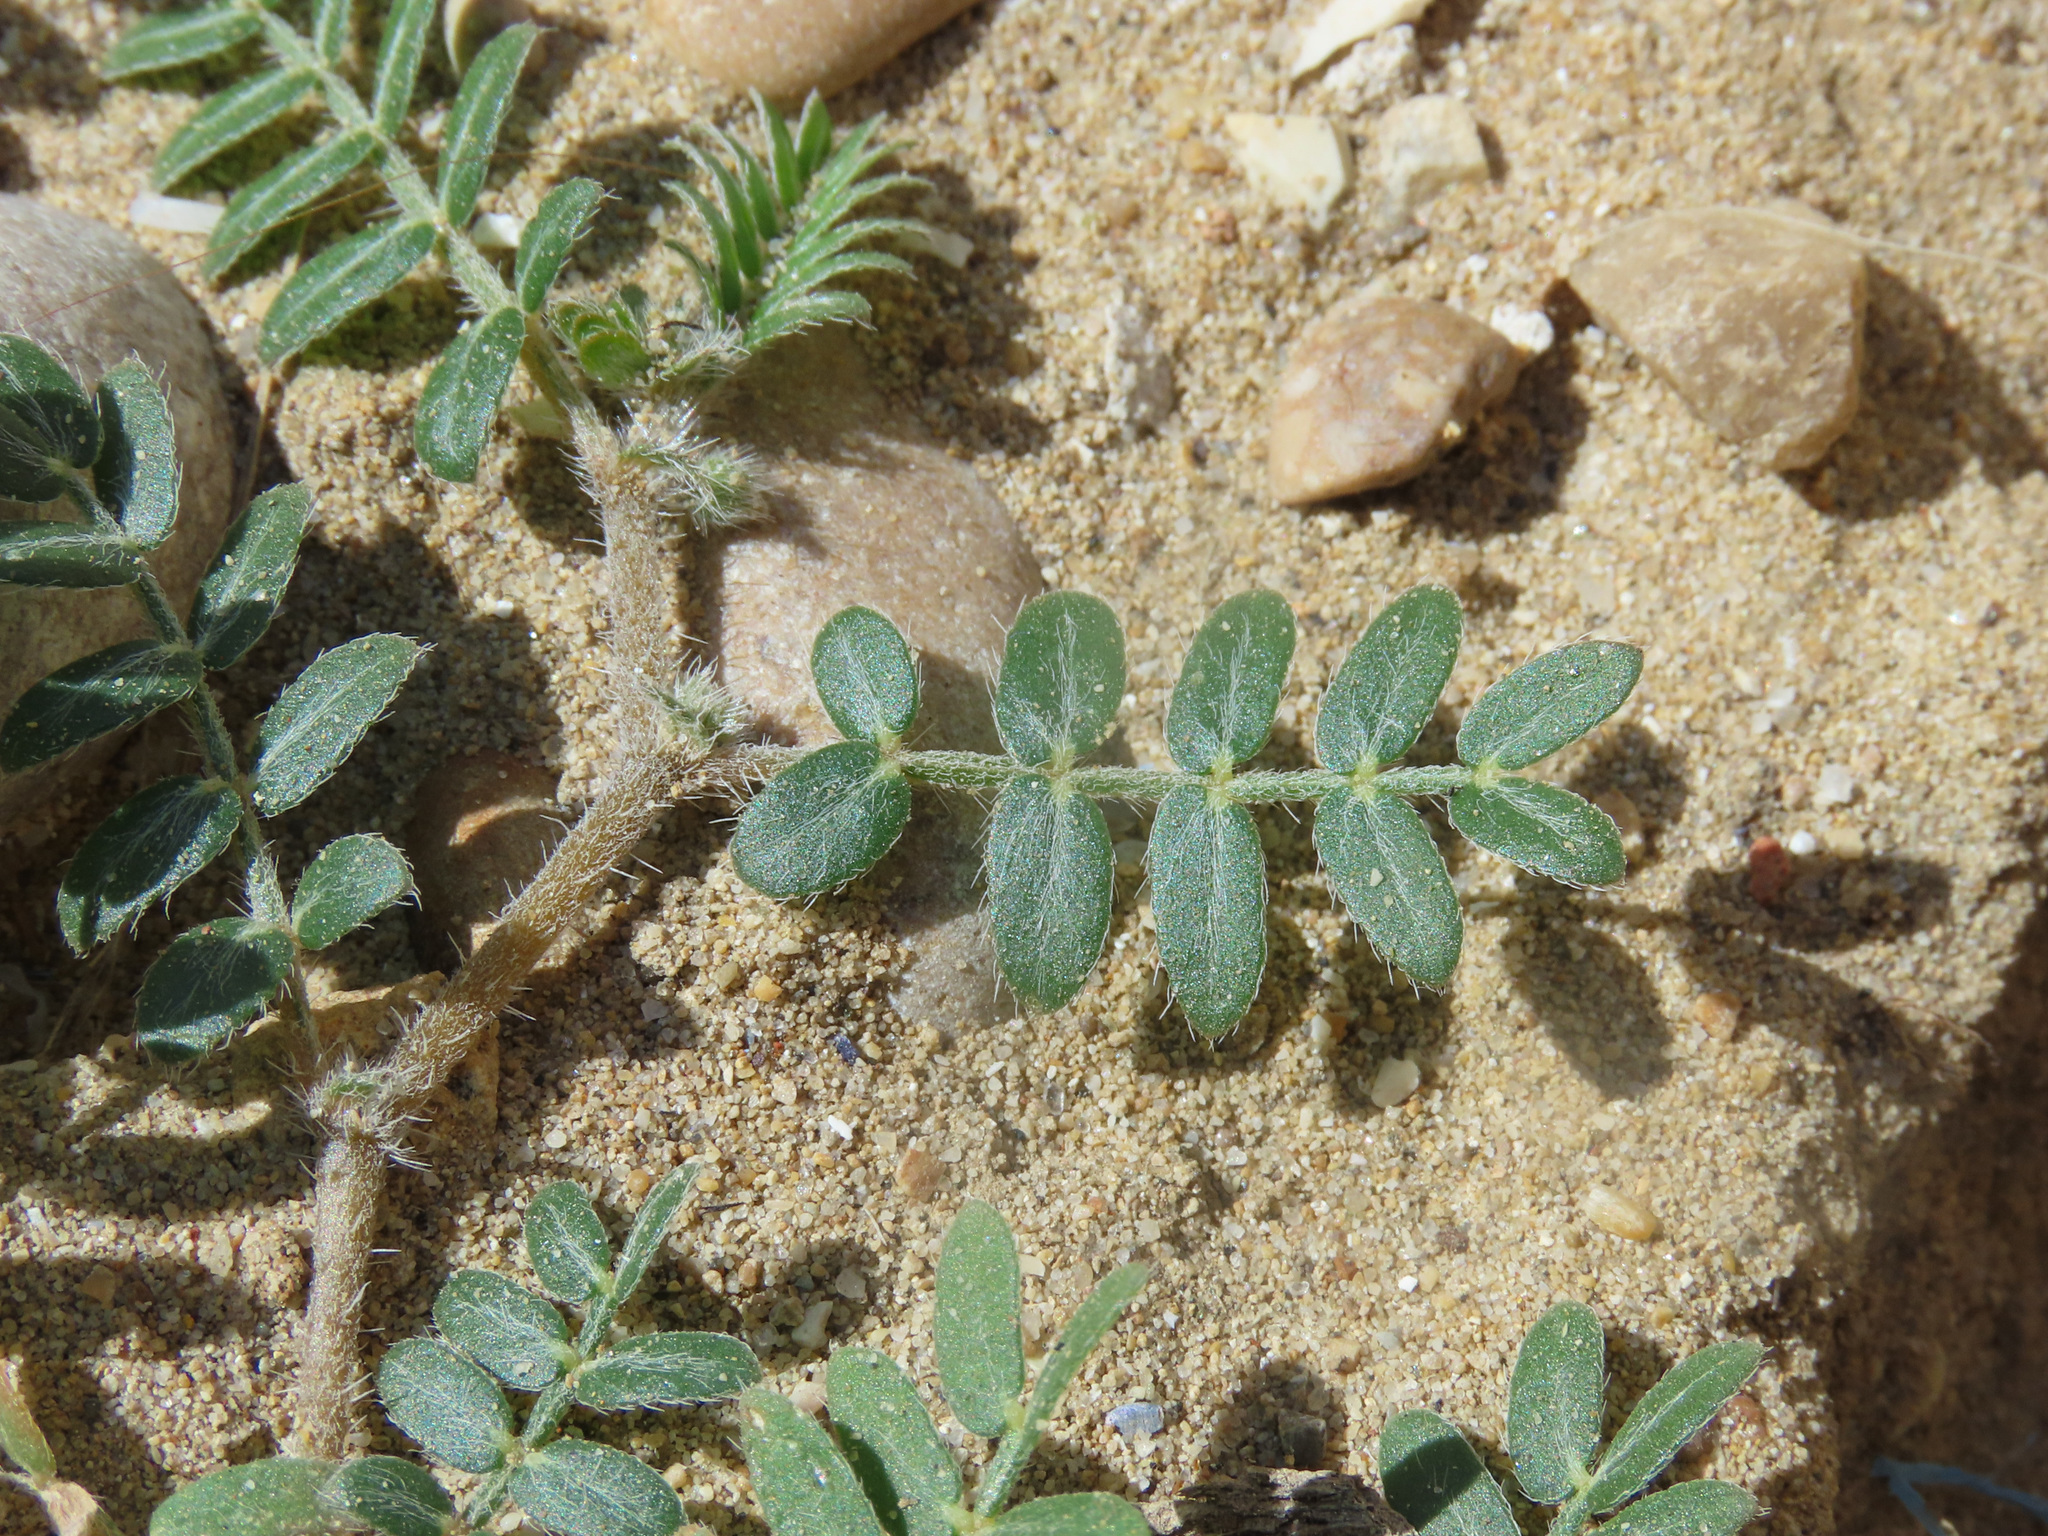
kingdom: Plantae
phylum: Tracheophyta
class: Magnoliopsida
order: Zygophyllales
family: Zygophyllaceae
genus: Tribulus
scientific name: Tribulus terrestris
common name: Puncturevine
